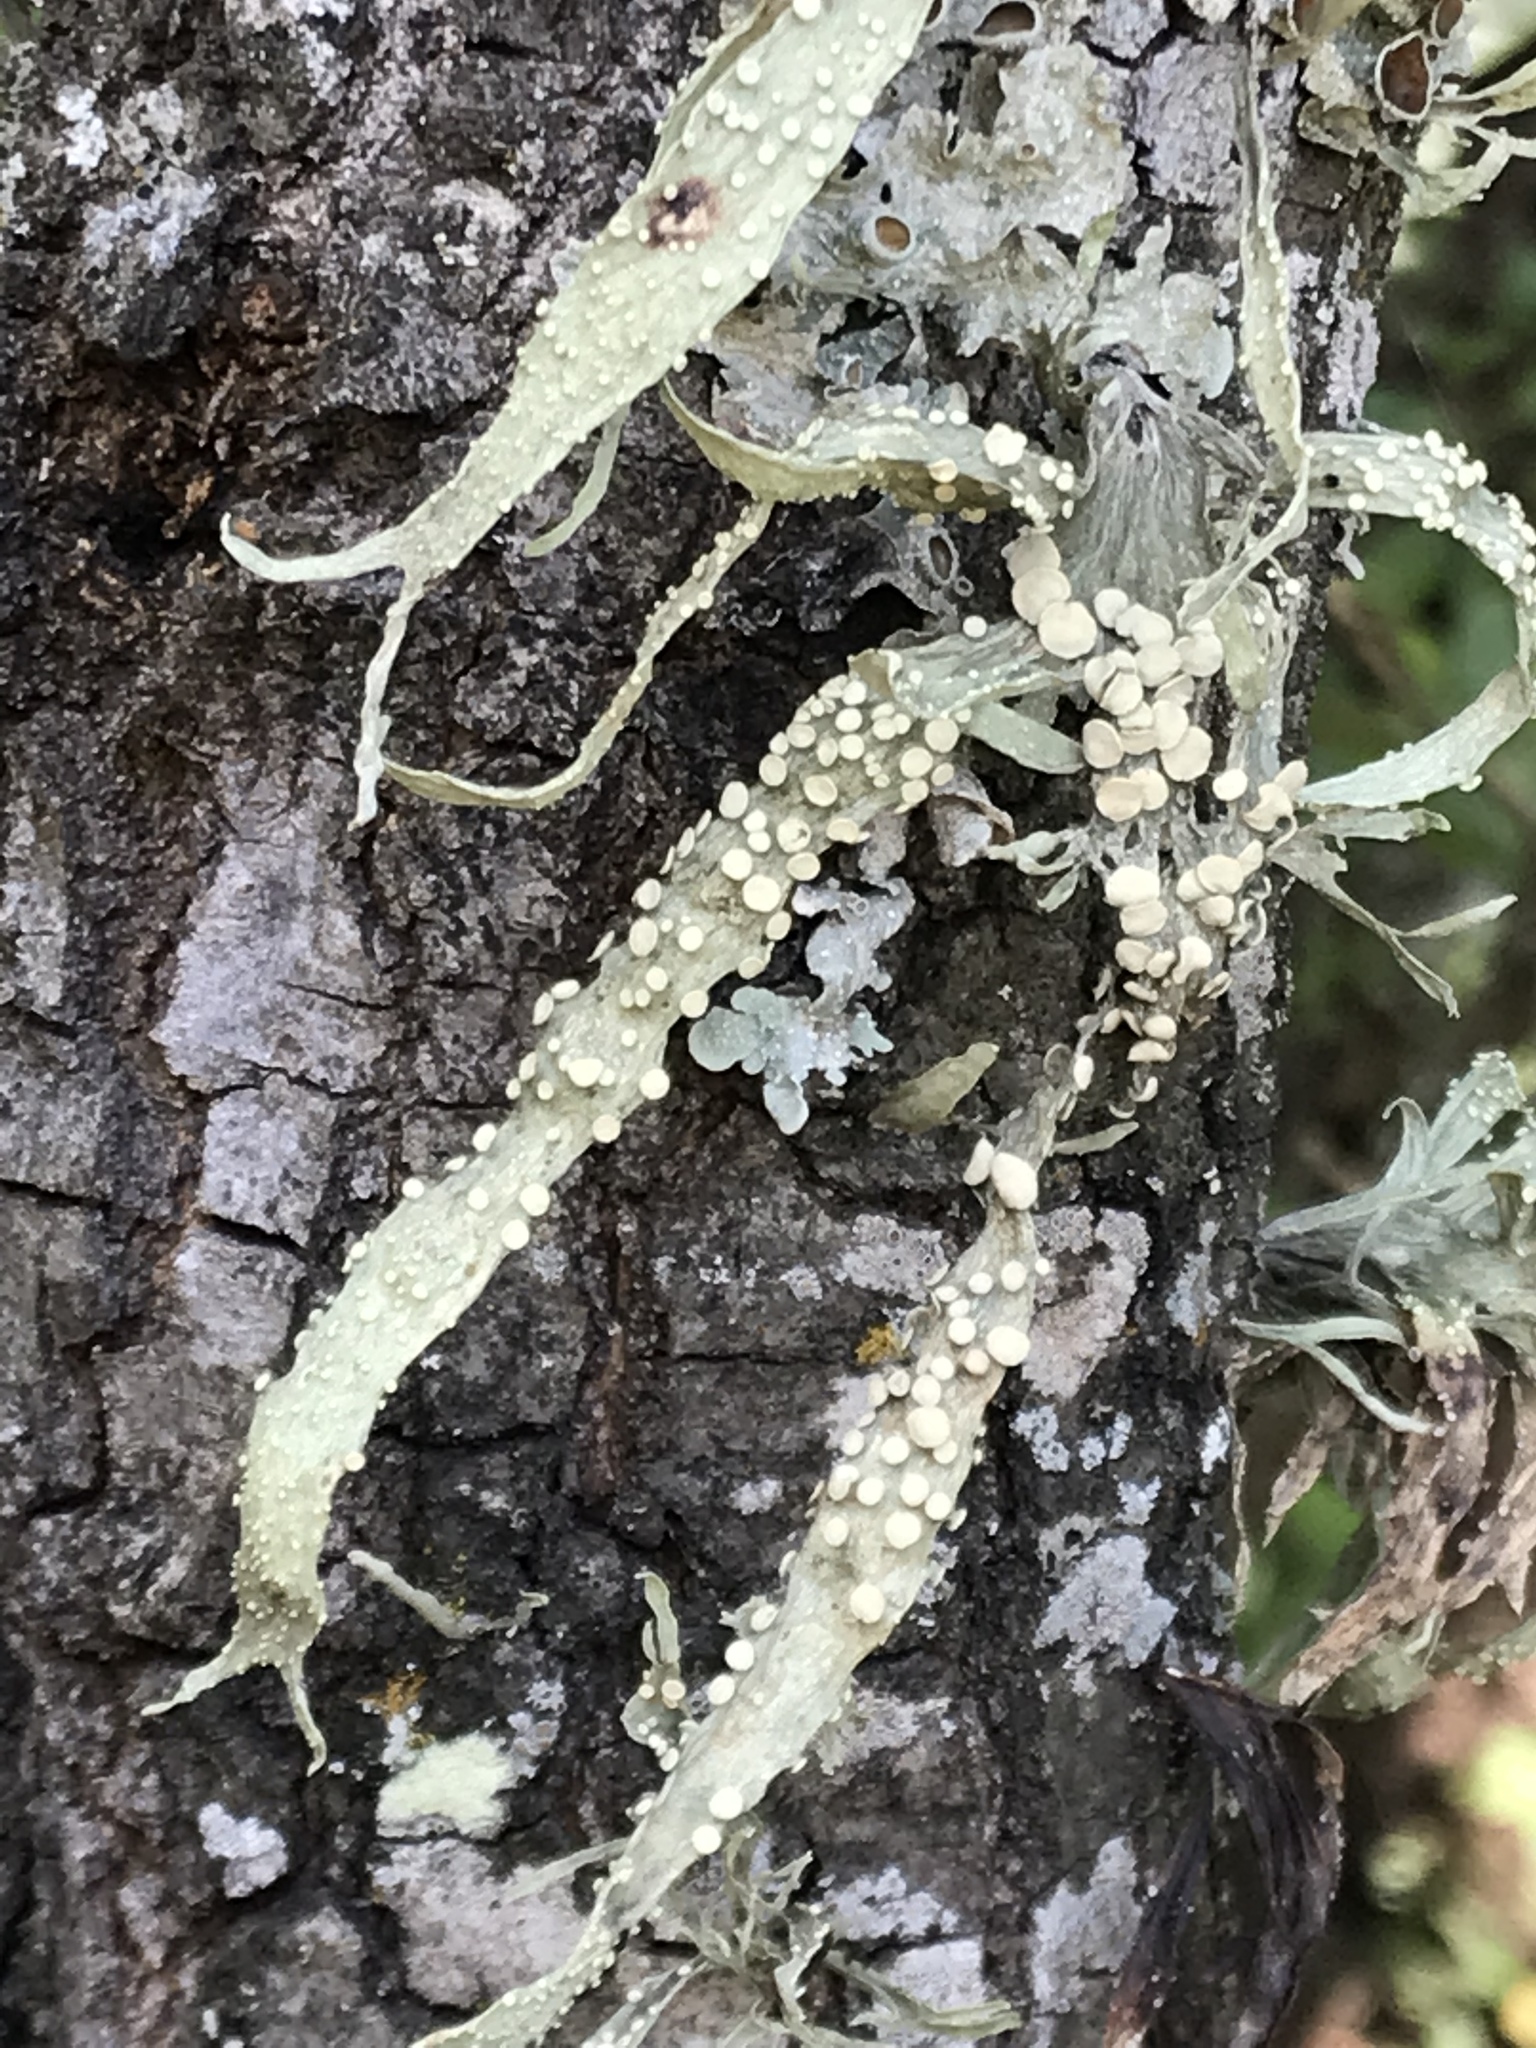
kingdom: Fungi
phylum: Ascomycota
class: Lecanoromycetes
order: Lecanorales
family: Ramalinaceae
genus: Ramalina
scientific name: Ramalina celastri
